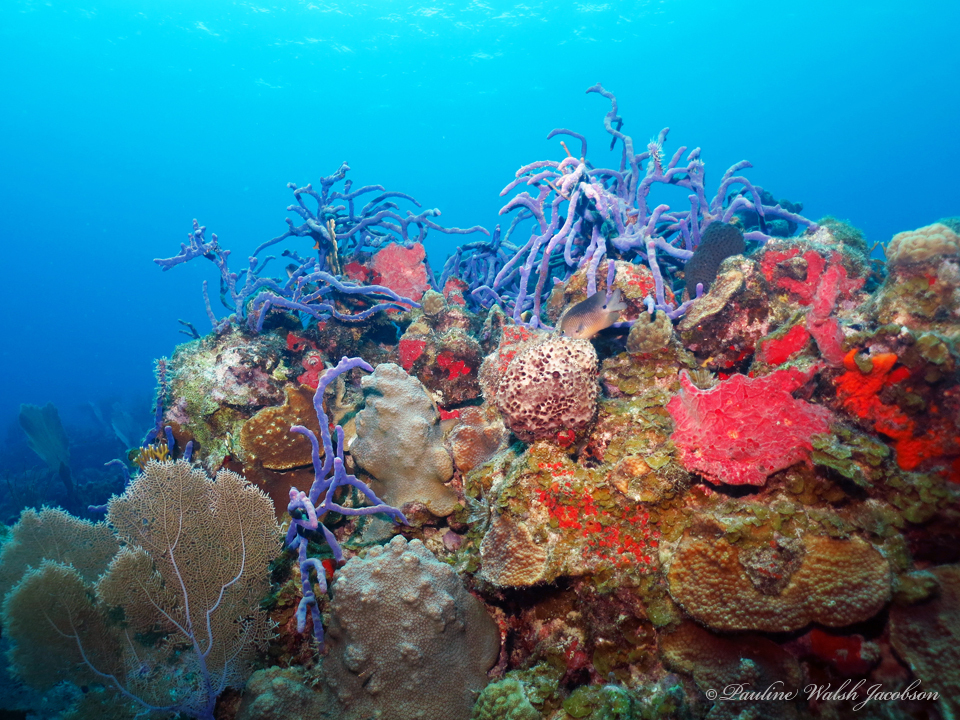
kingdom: Animalia
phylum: Porifera
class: Demospongiae
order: Verongiida
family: Aplysinidae
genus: Aplysina
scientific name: Aplysina cauliformis
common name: Branching candle sponge
